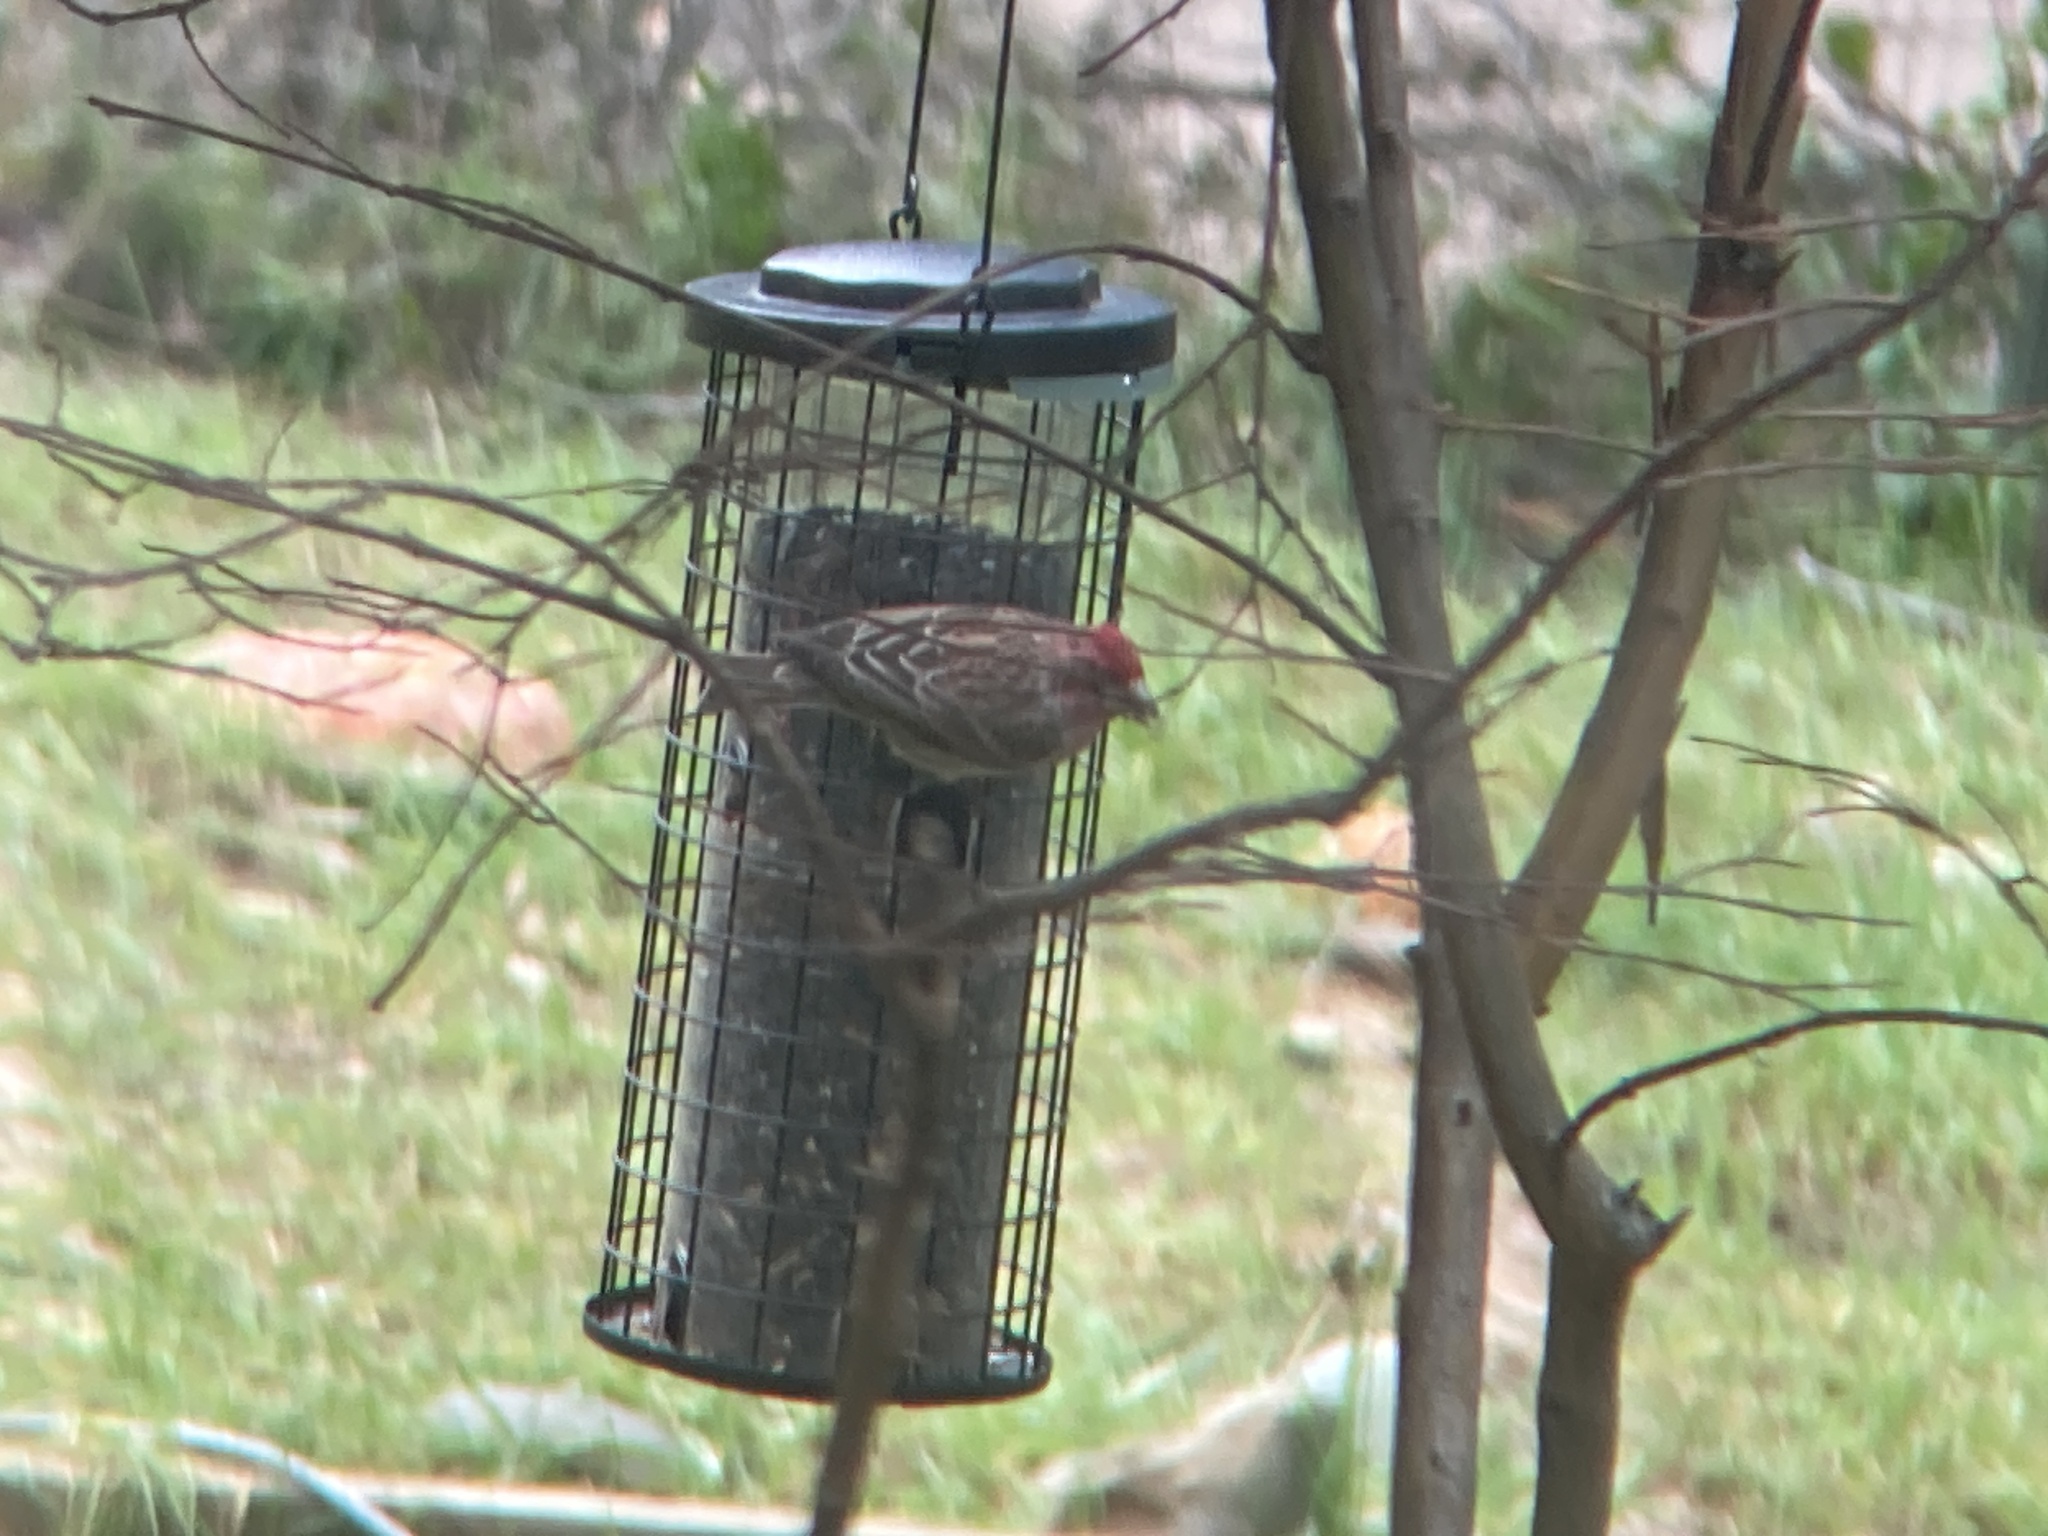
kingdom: Animalia
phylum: Chordata
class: Aves
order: Passeriformes
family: Fringillidae
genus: Haemorhous
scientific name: Haemorhous cassinii
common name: Cassin's finch
